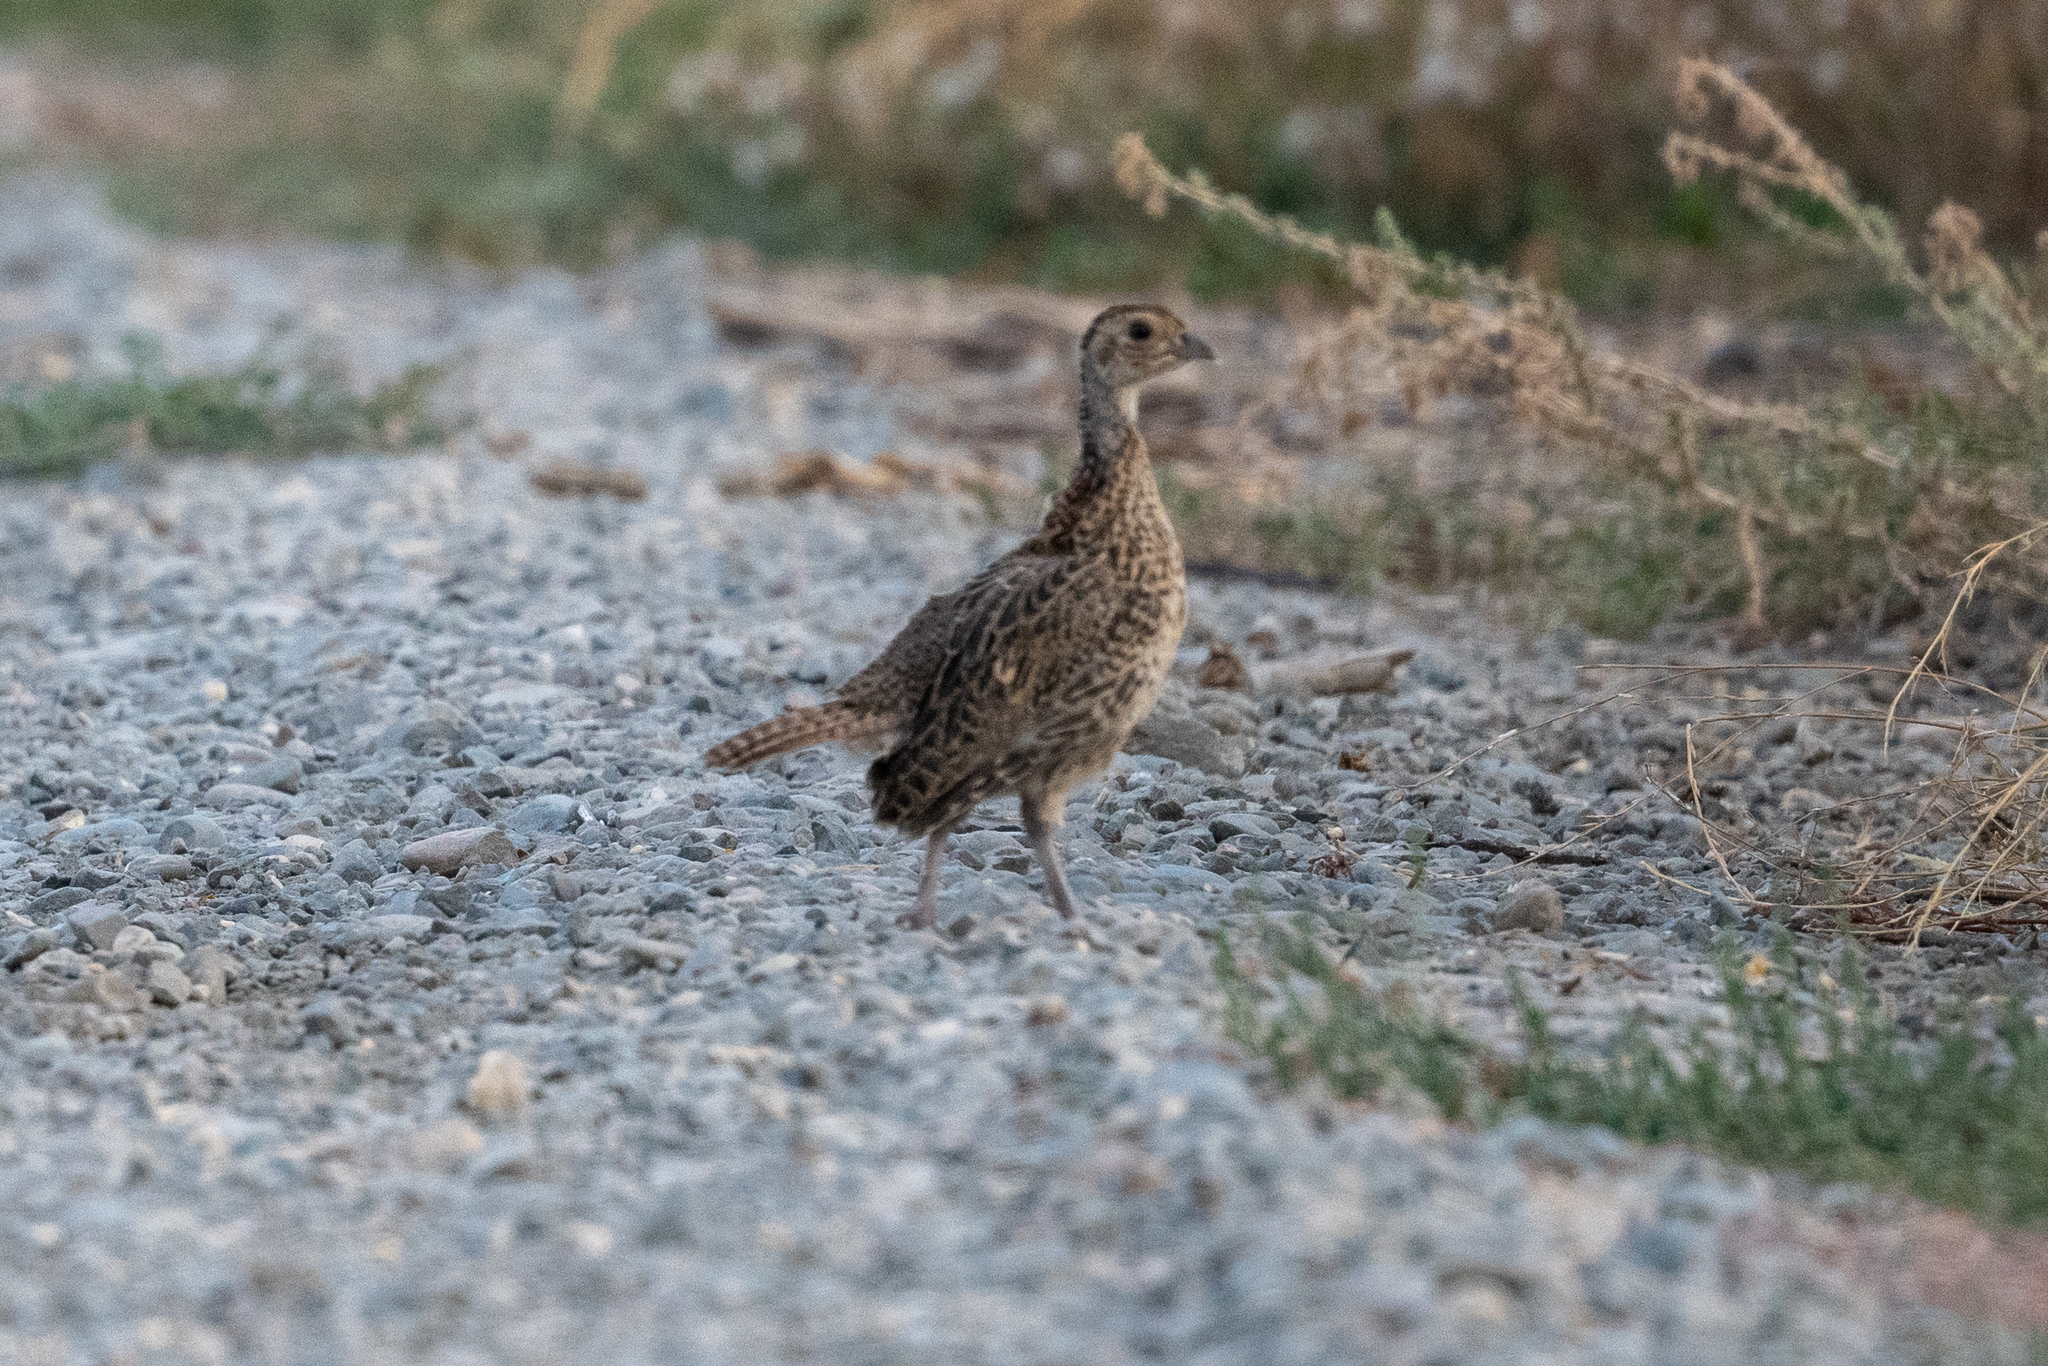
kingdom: Animalia
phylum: Chordata
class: Aves
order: Galliformes
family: Phasianidae
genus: Phasianus
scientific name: Phasianus colchicus
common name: Common pheasant
